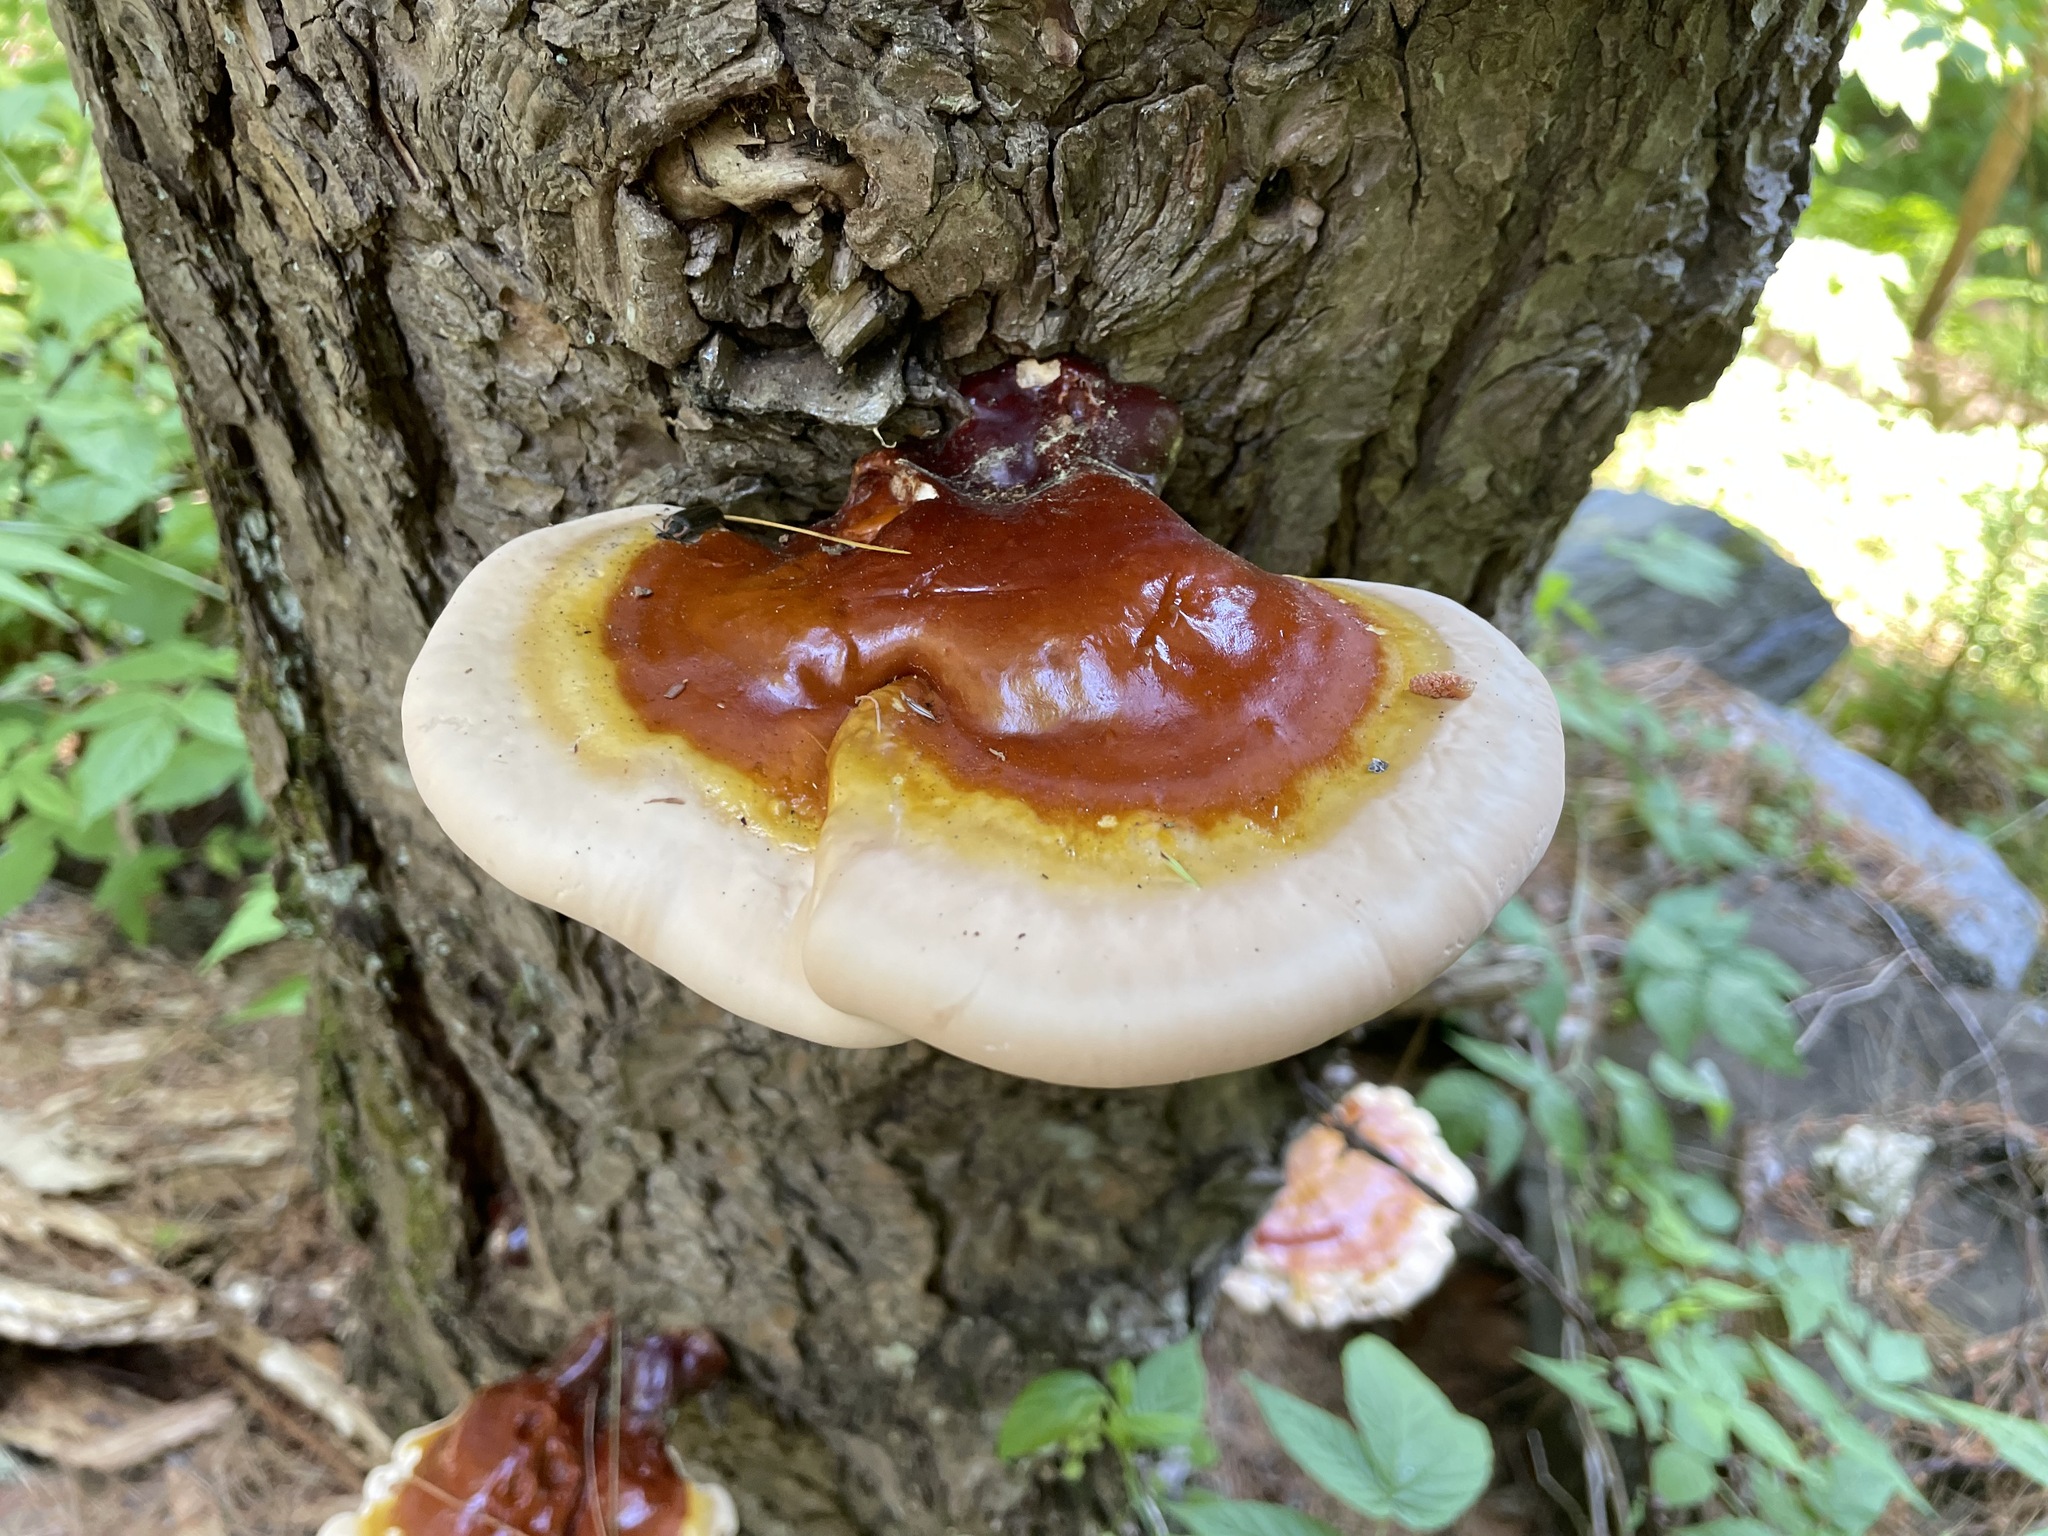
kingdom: Fungi
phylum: Basidiomycota
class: Agaricomycetes
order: Polyporales
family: Polyporaceae
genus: Ganoderma
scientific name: Ganoderma tsugae
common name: Hemlock varnish shelf
